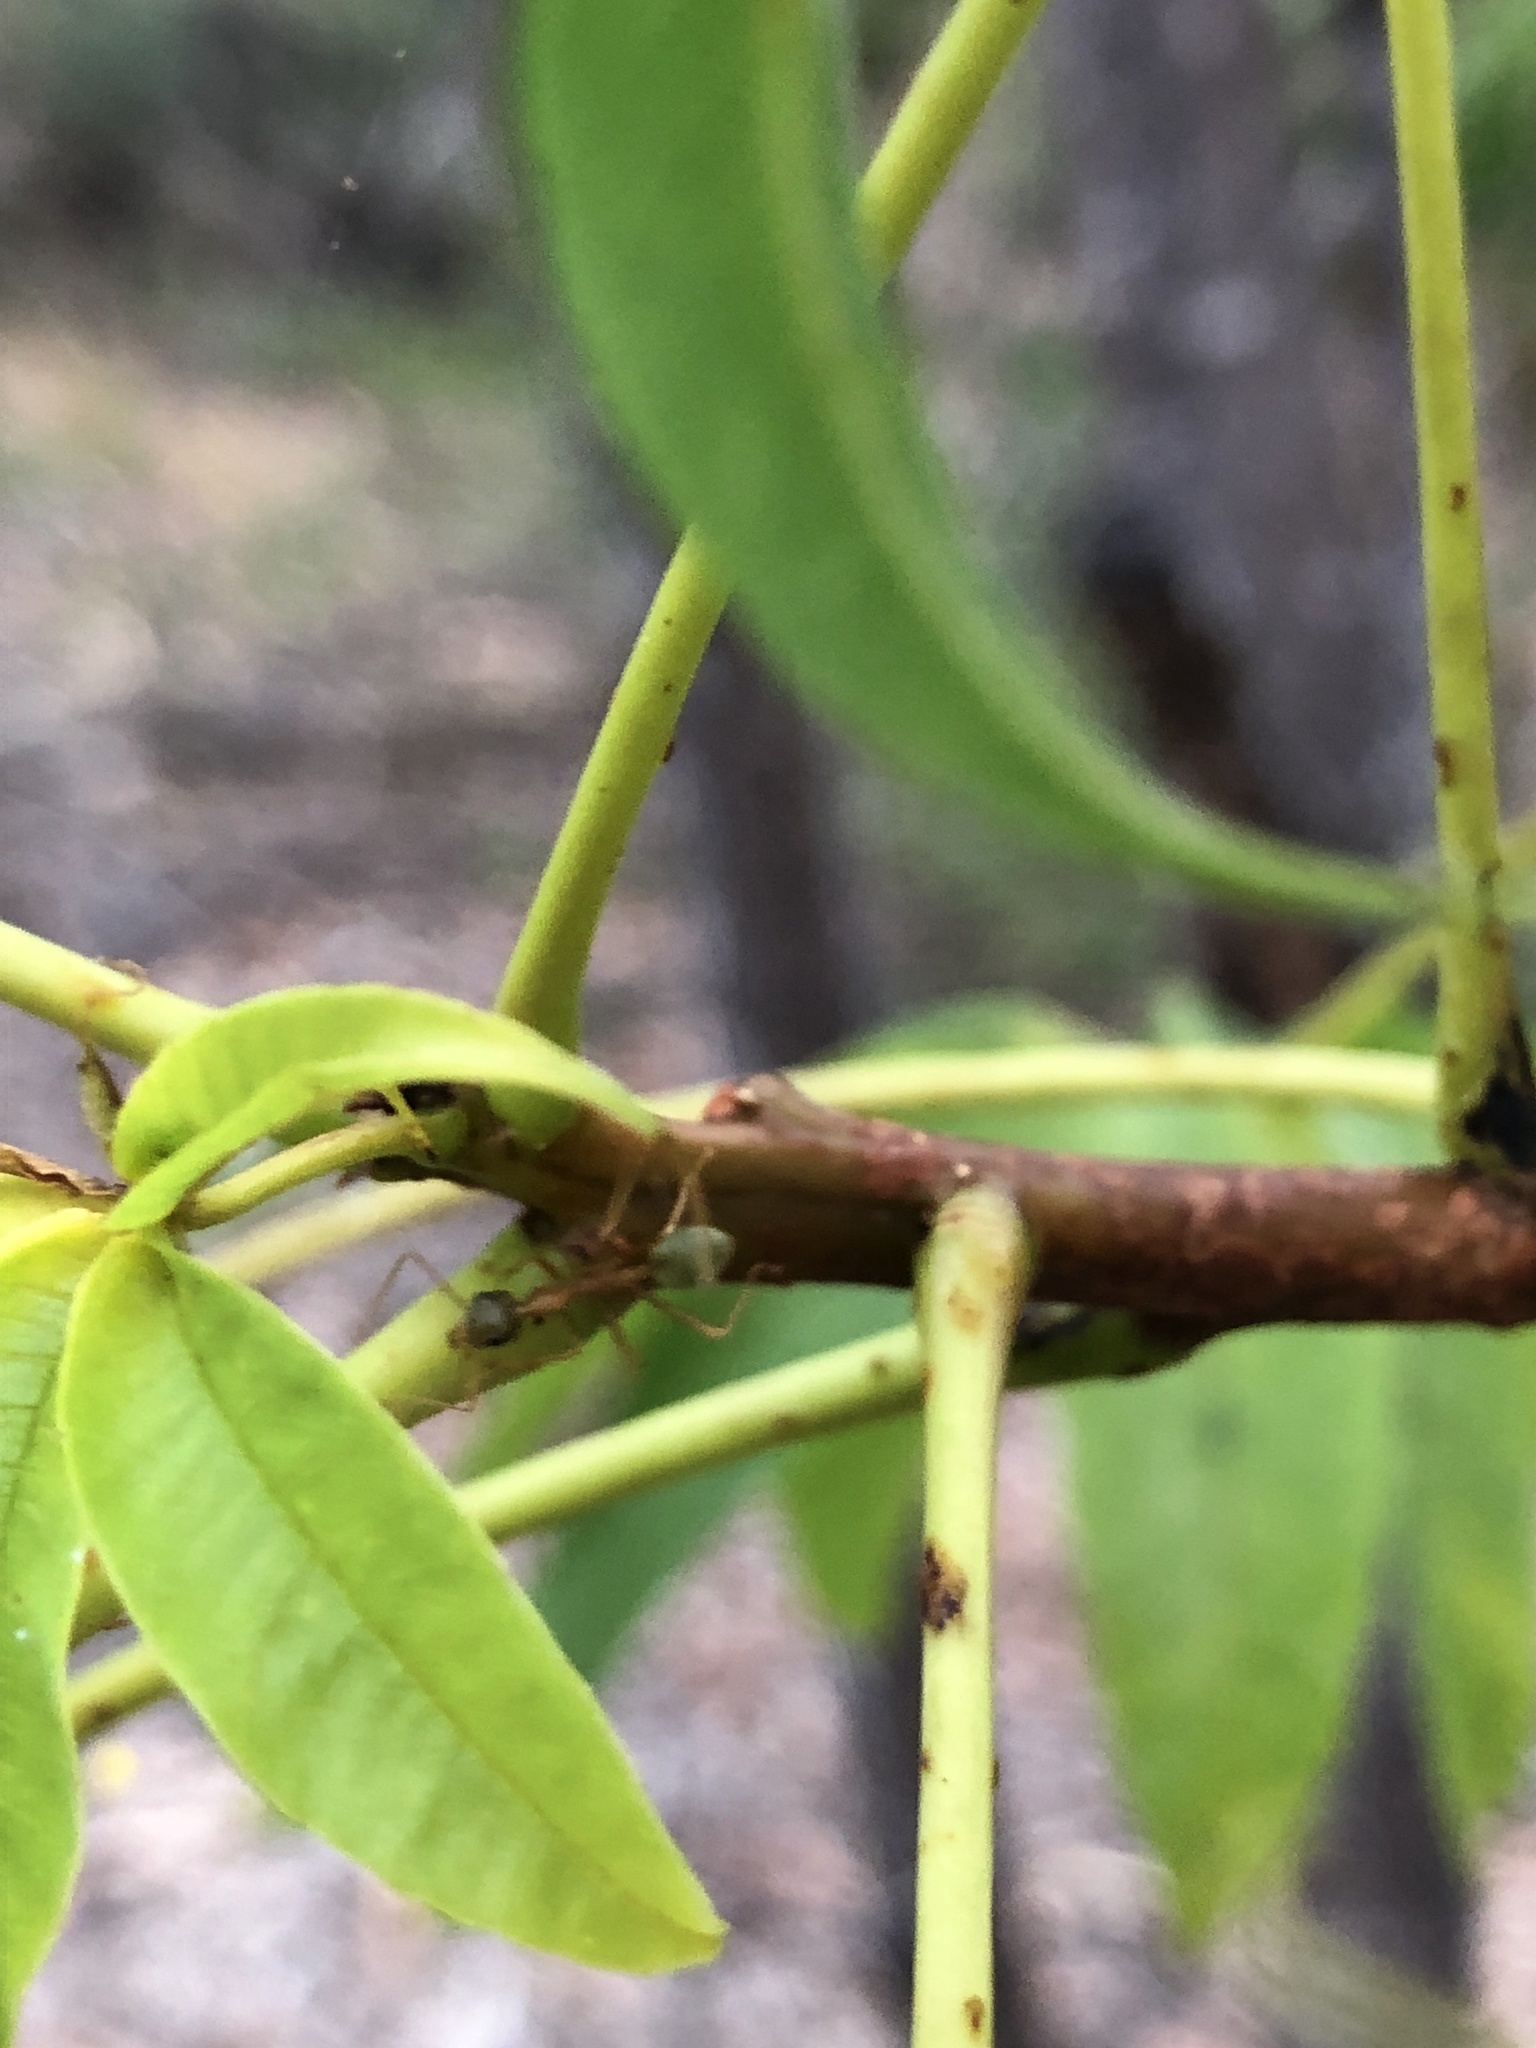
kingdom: Animalia
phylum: Arthropoda
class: Insecta
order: Hymenoptera
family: Formicidae
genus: Oecophylla
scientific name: Oecophylla smaragdina
